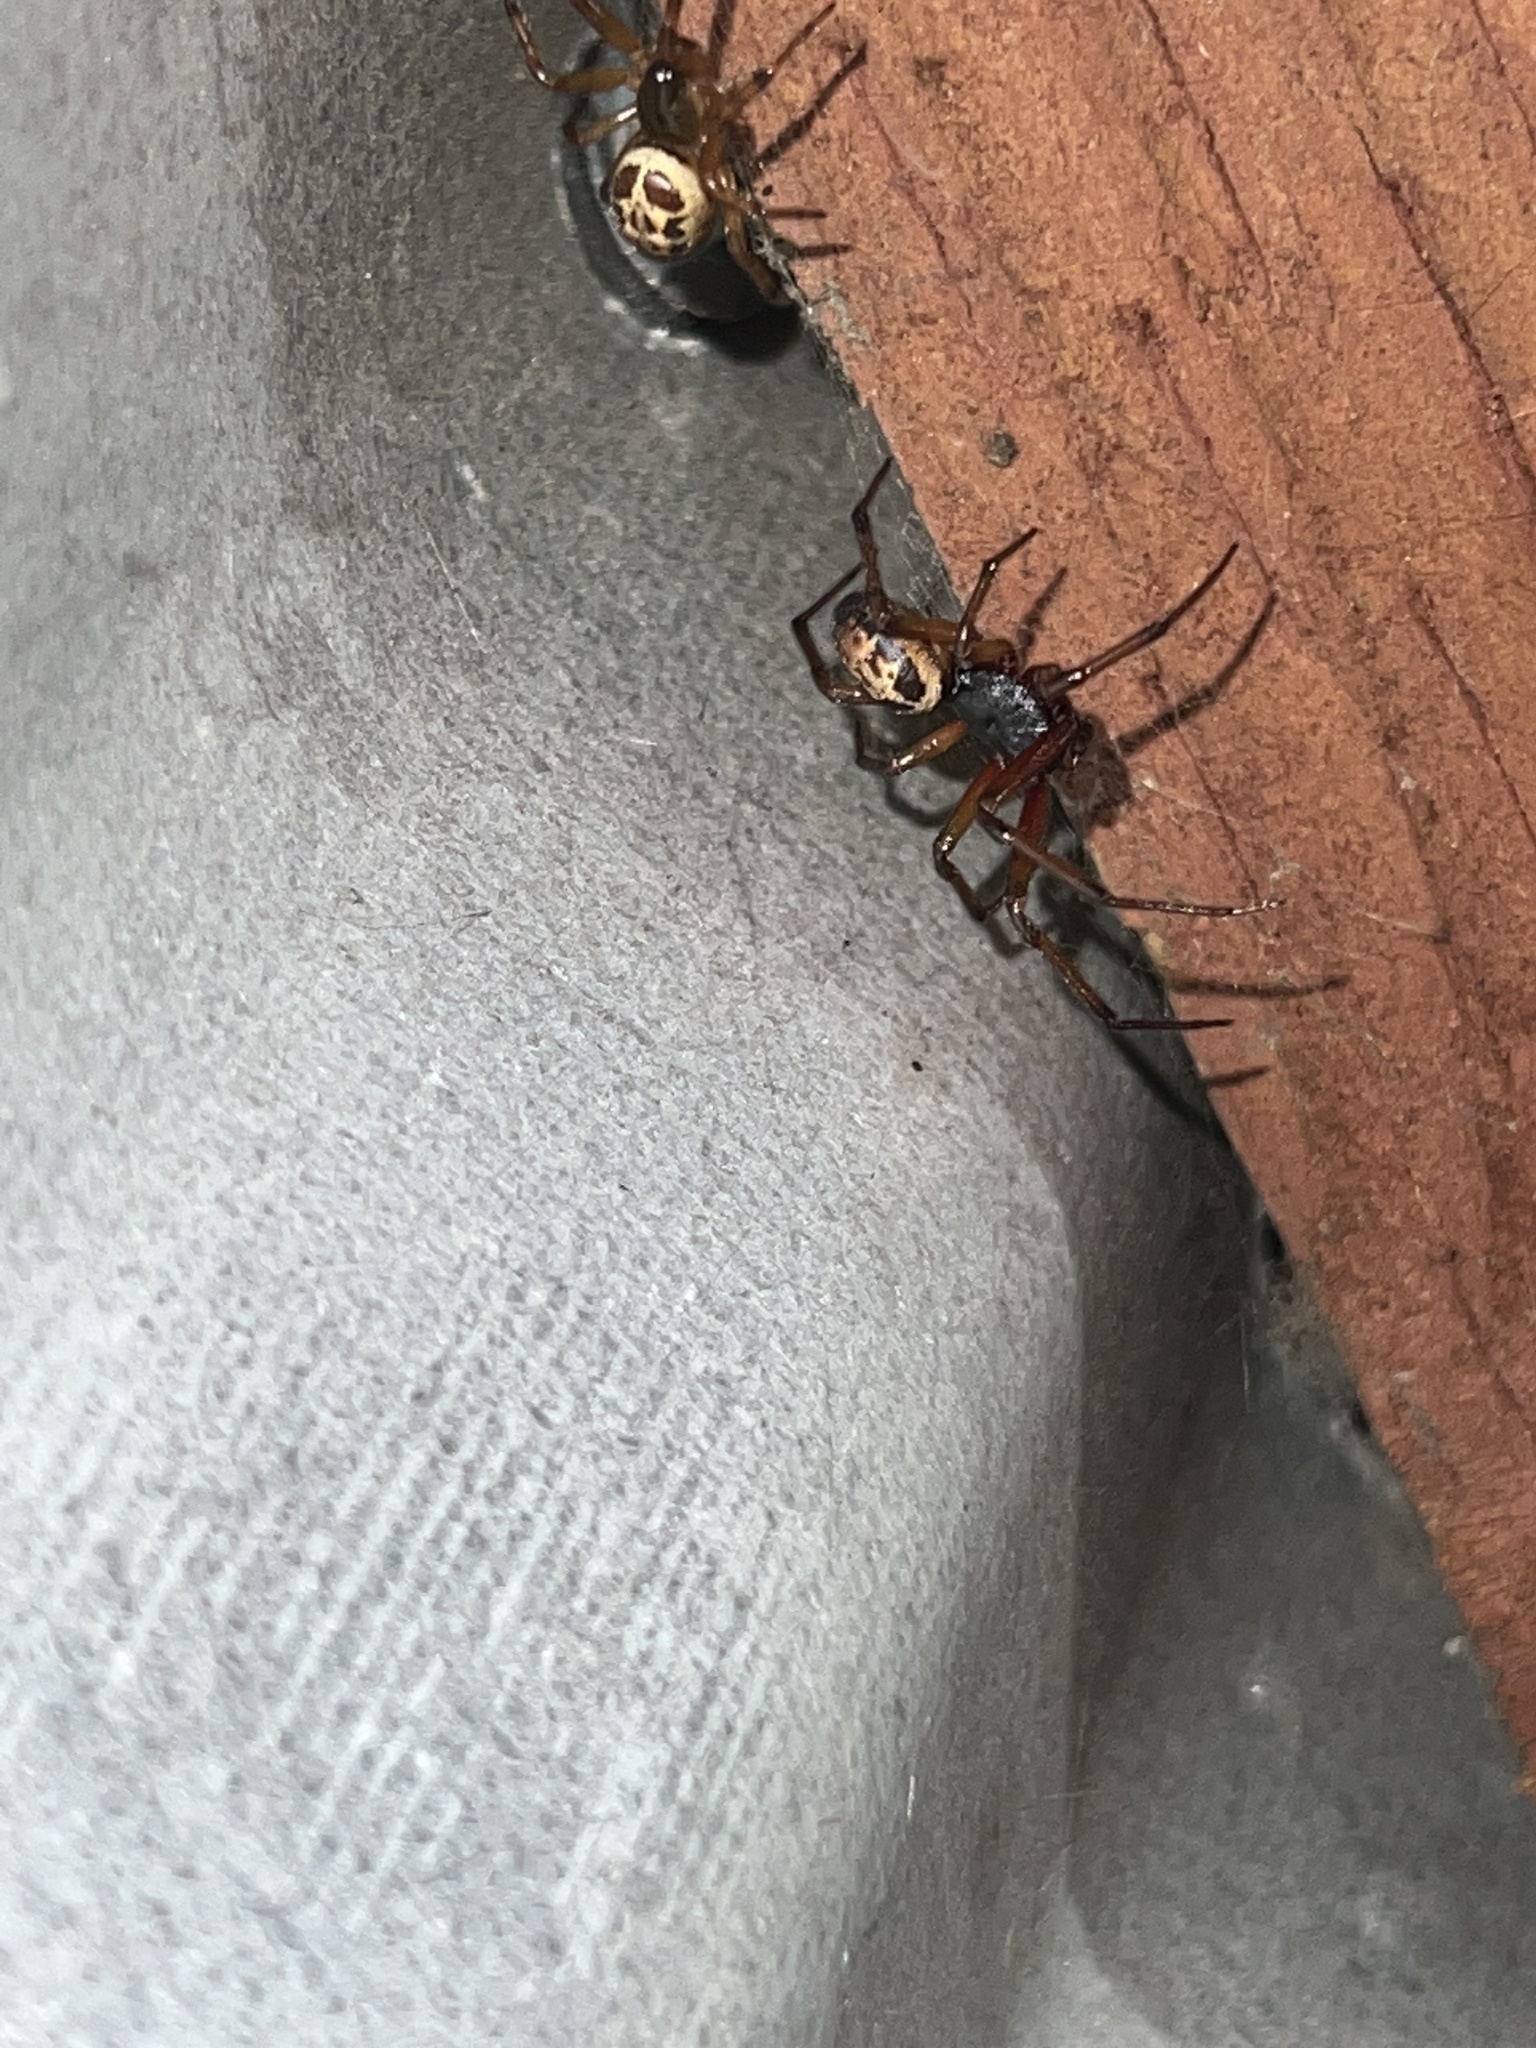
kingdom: Animalia
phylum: Arthropoda
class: Arachnida
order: Araneae
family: Theridiidae
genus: Steatoda
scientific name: Steatoda nobilis
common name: Cobweb weaver
